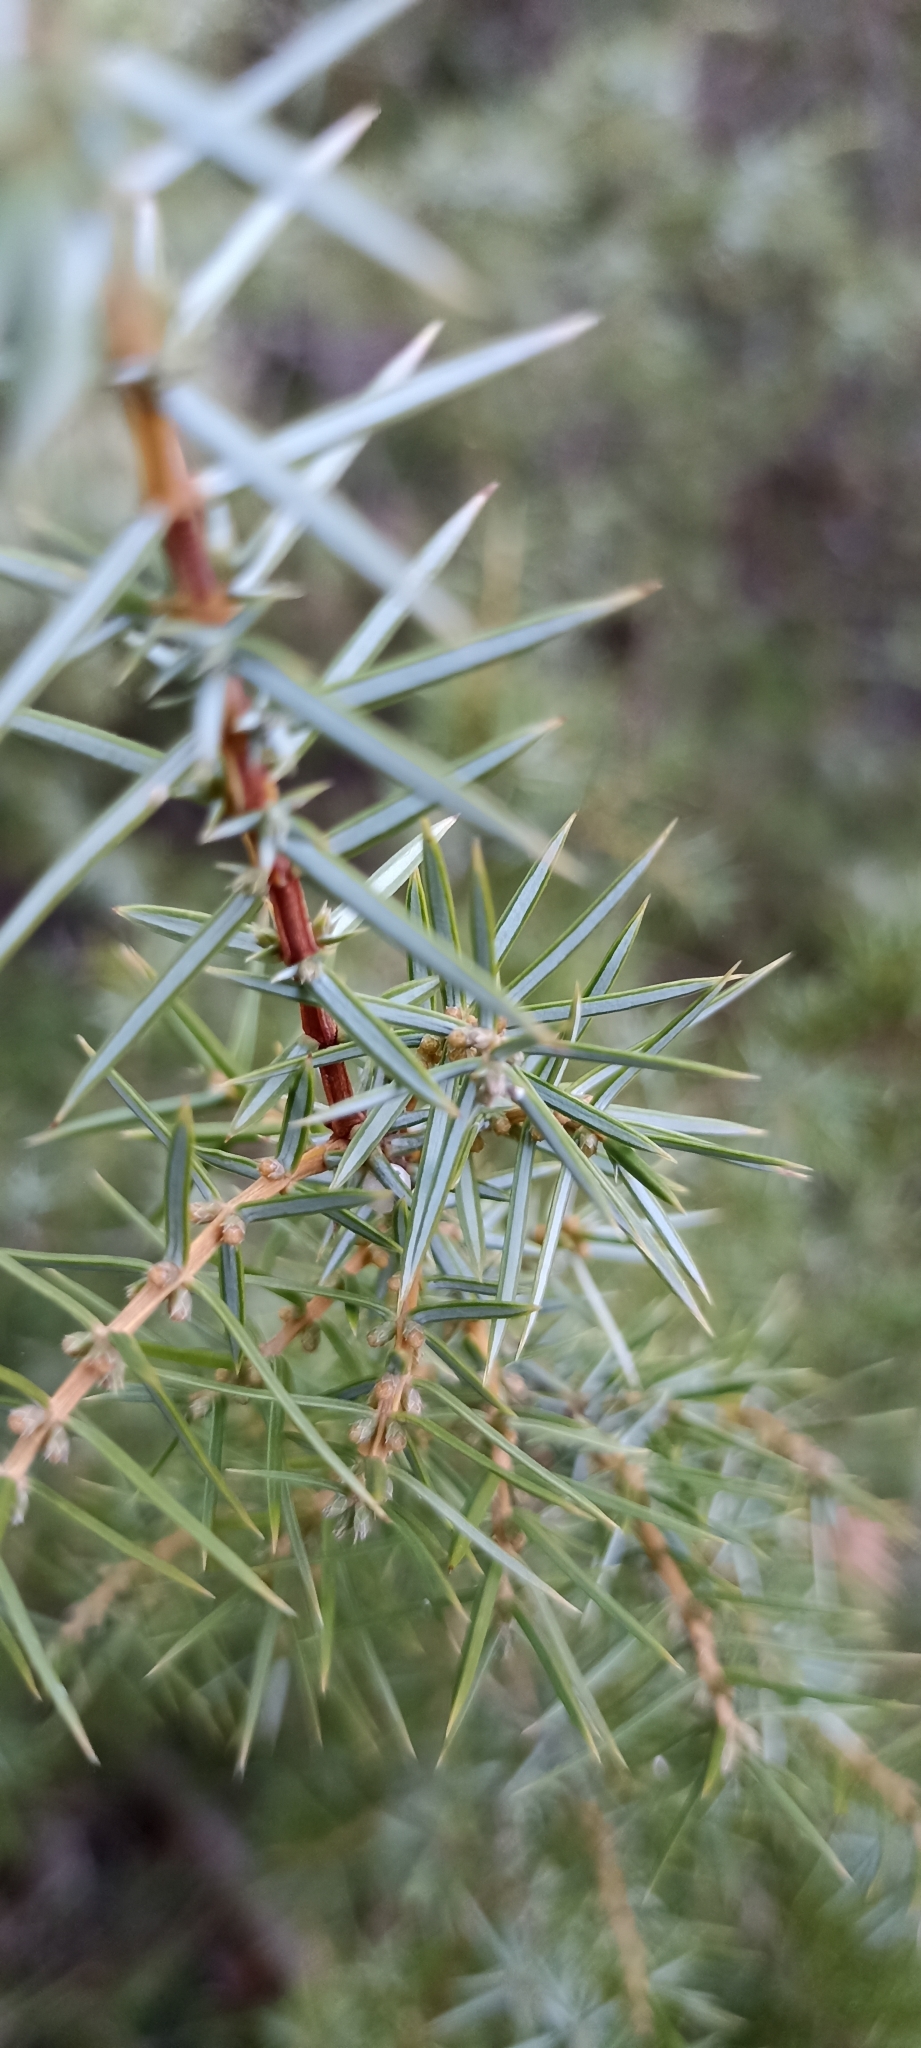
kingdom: Plantae
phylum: Tracheophyta
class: Pinopsida
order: Pinales
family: Cupressaceae
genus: Juniperus
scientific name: Juniperus communis
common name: Common juniper
